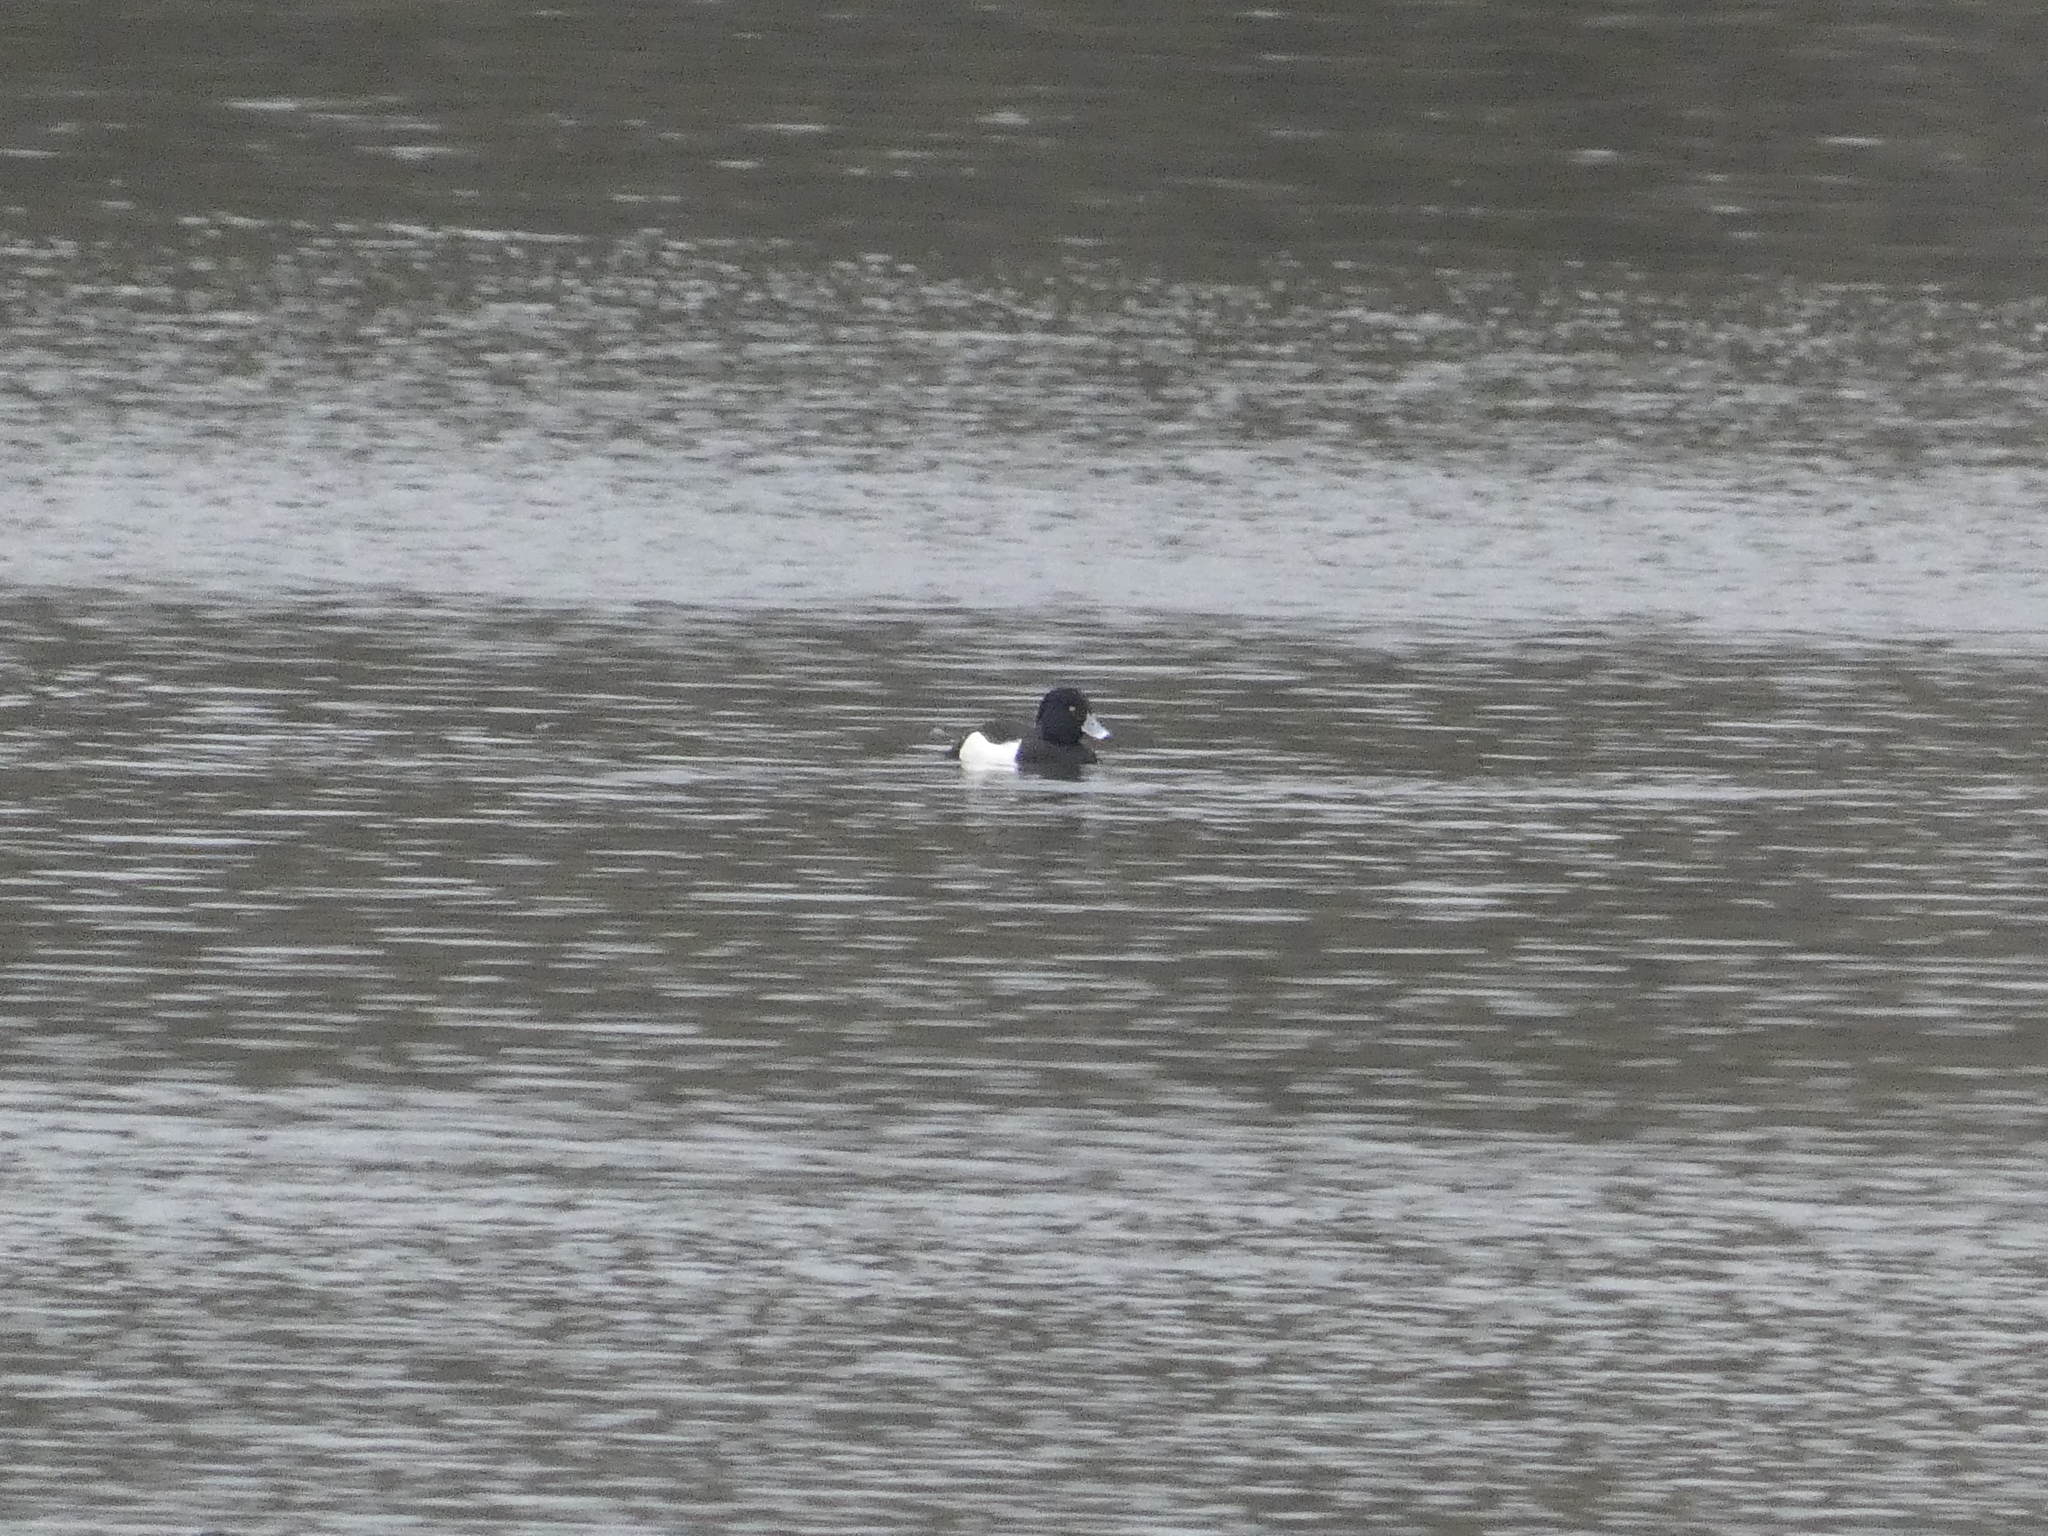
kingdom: Animalia
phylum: Chordata
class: Aves
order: Anseriformes
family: Anatidae
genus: Aythya
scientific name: Aythya fuligula
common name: Tufted duck
